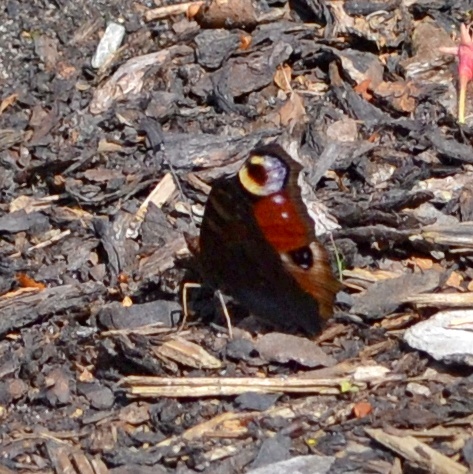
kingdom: Animalia
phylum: Arthropoda
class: Insecta
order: Lepidoptera
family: Nymphalidae
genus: Aglais
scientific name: Aglais io
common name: Peacock
